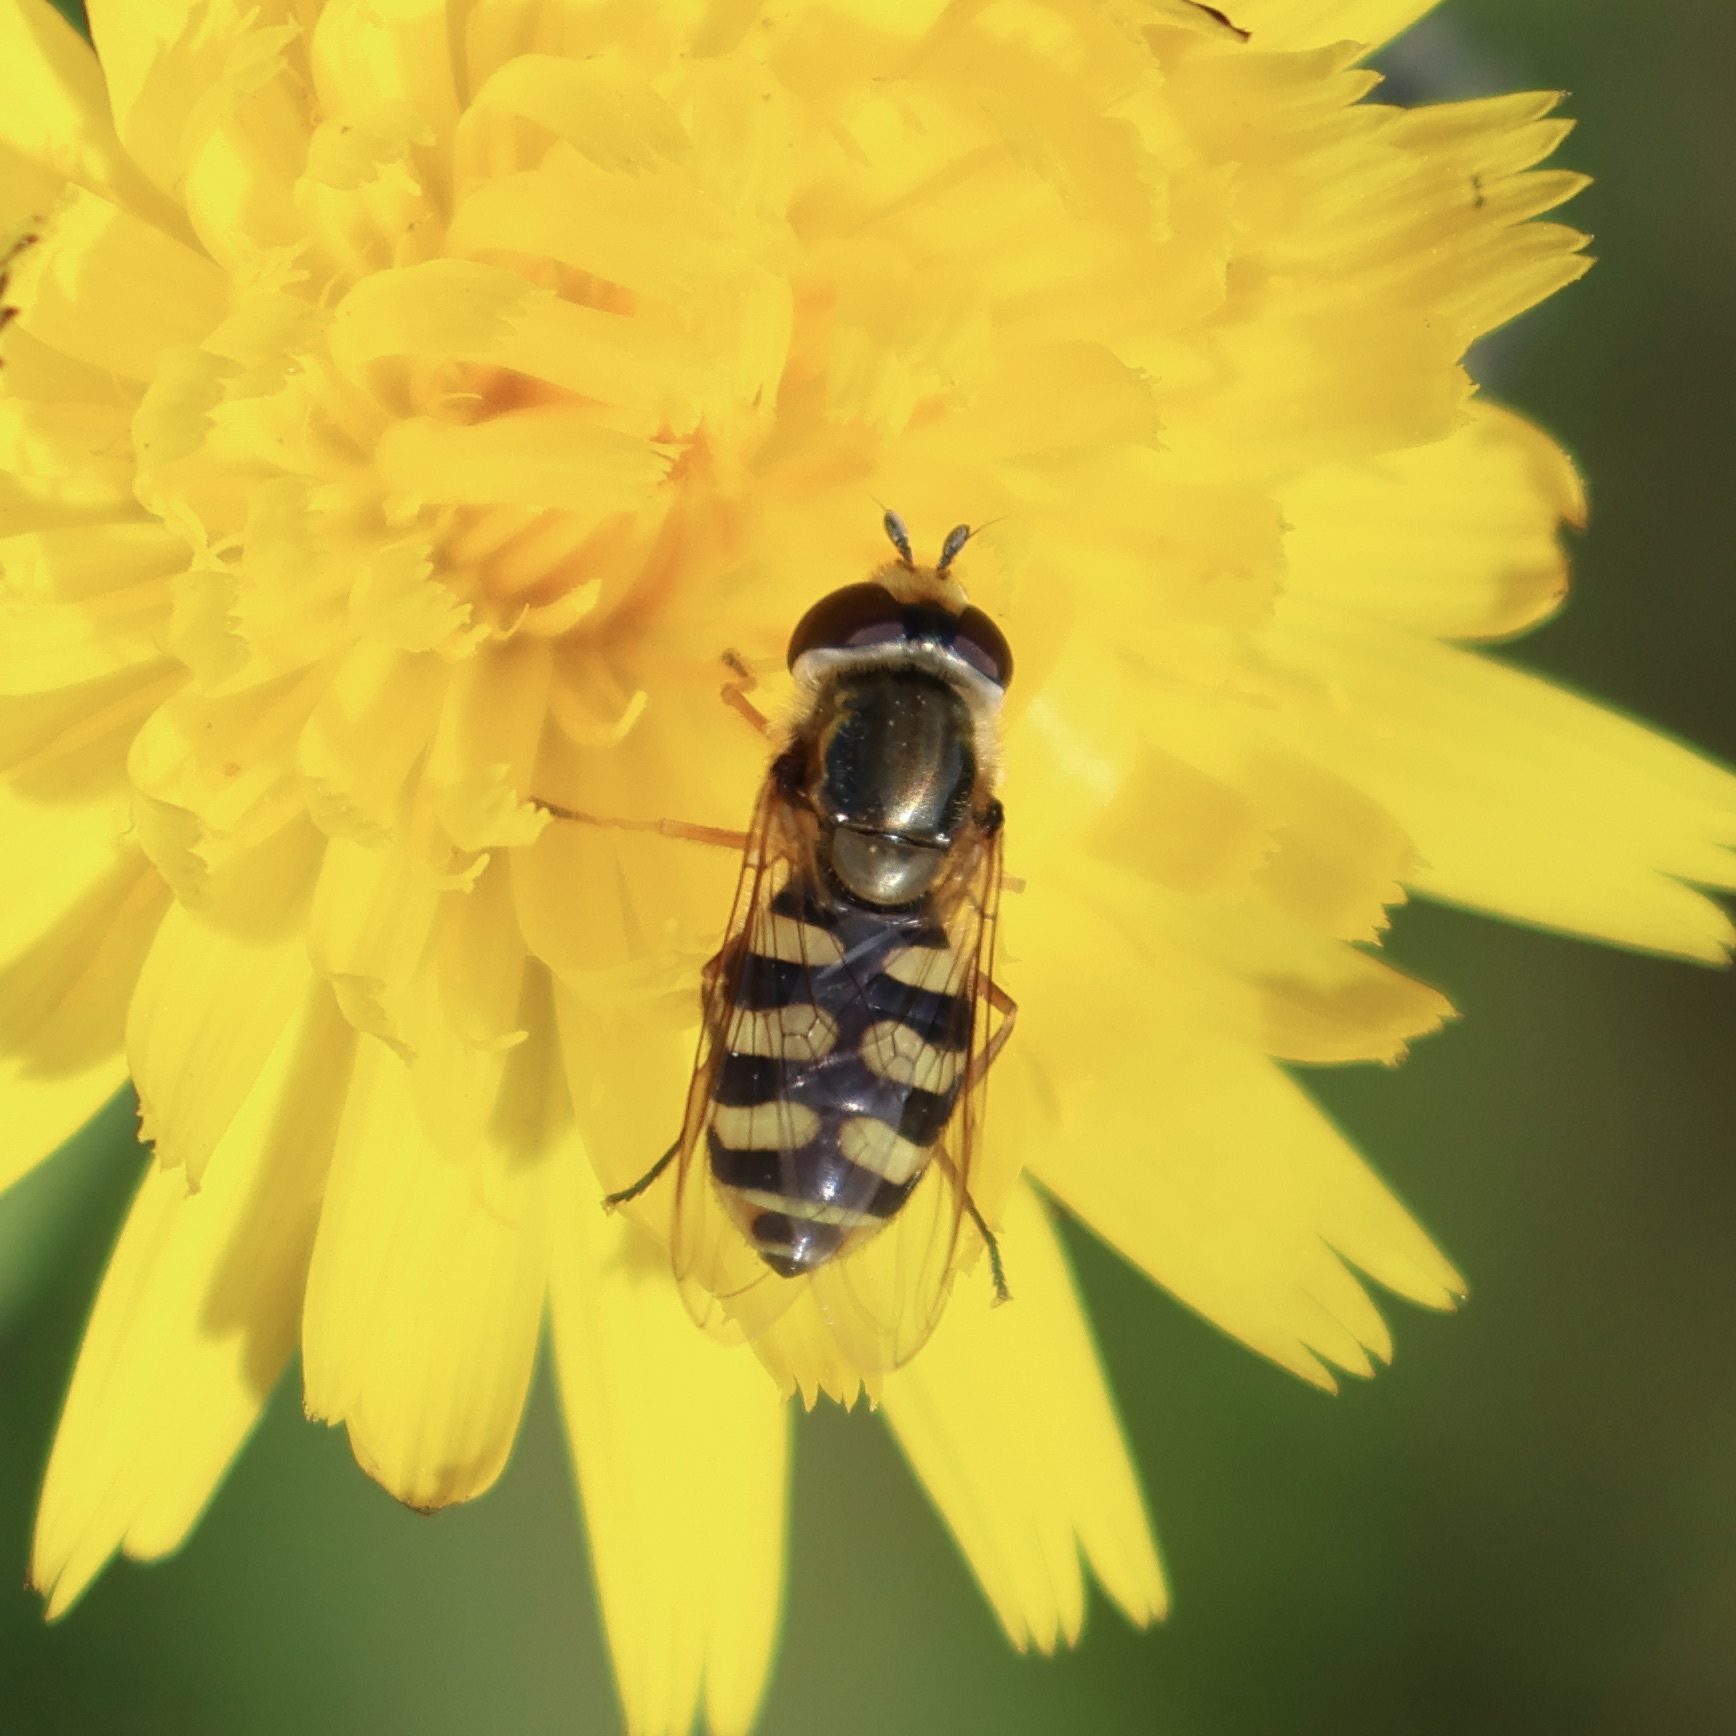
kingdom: Animalia
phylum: Arthropoda
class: Insecta
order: Diptera
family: Syrphidae
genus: Eupeodes
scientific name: Eupeodes corollae
